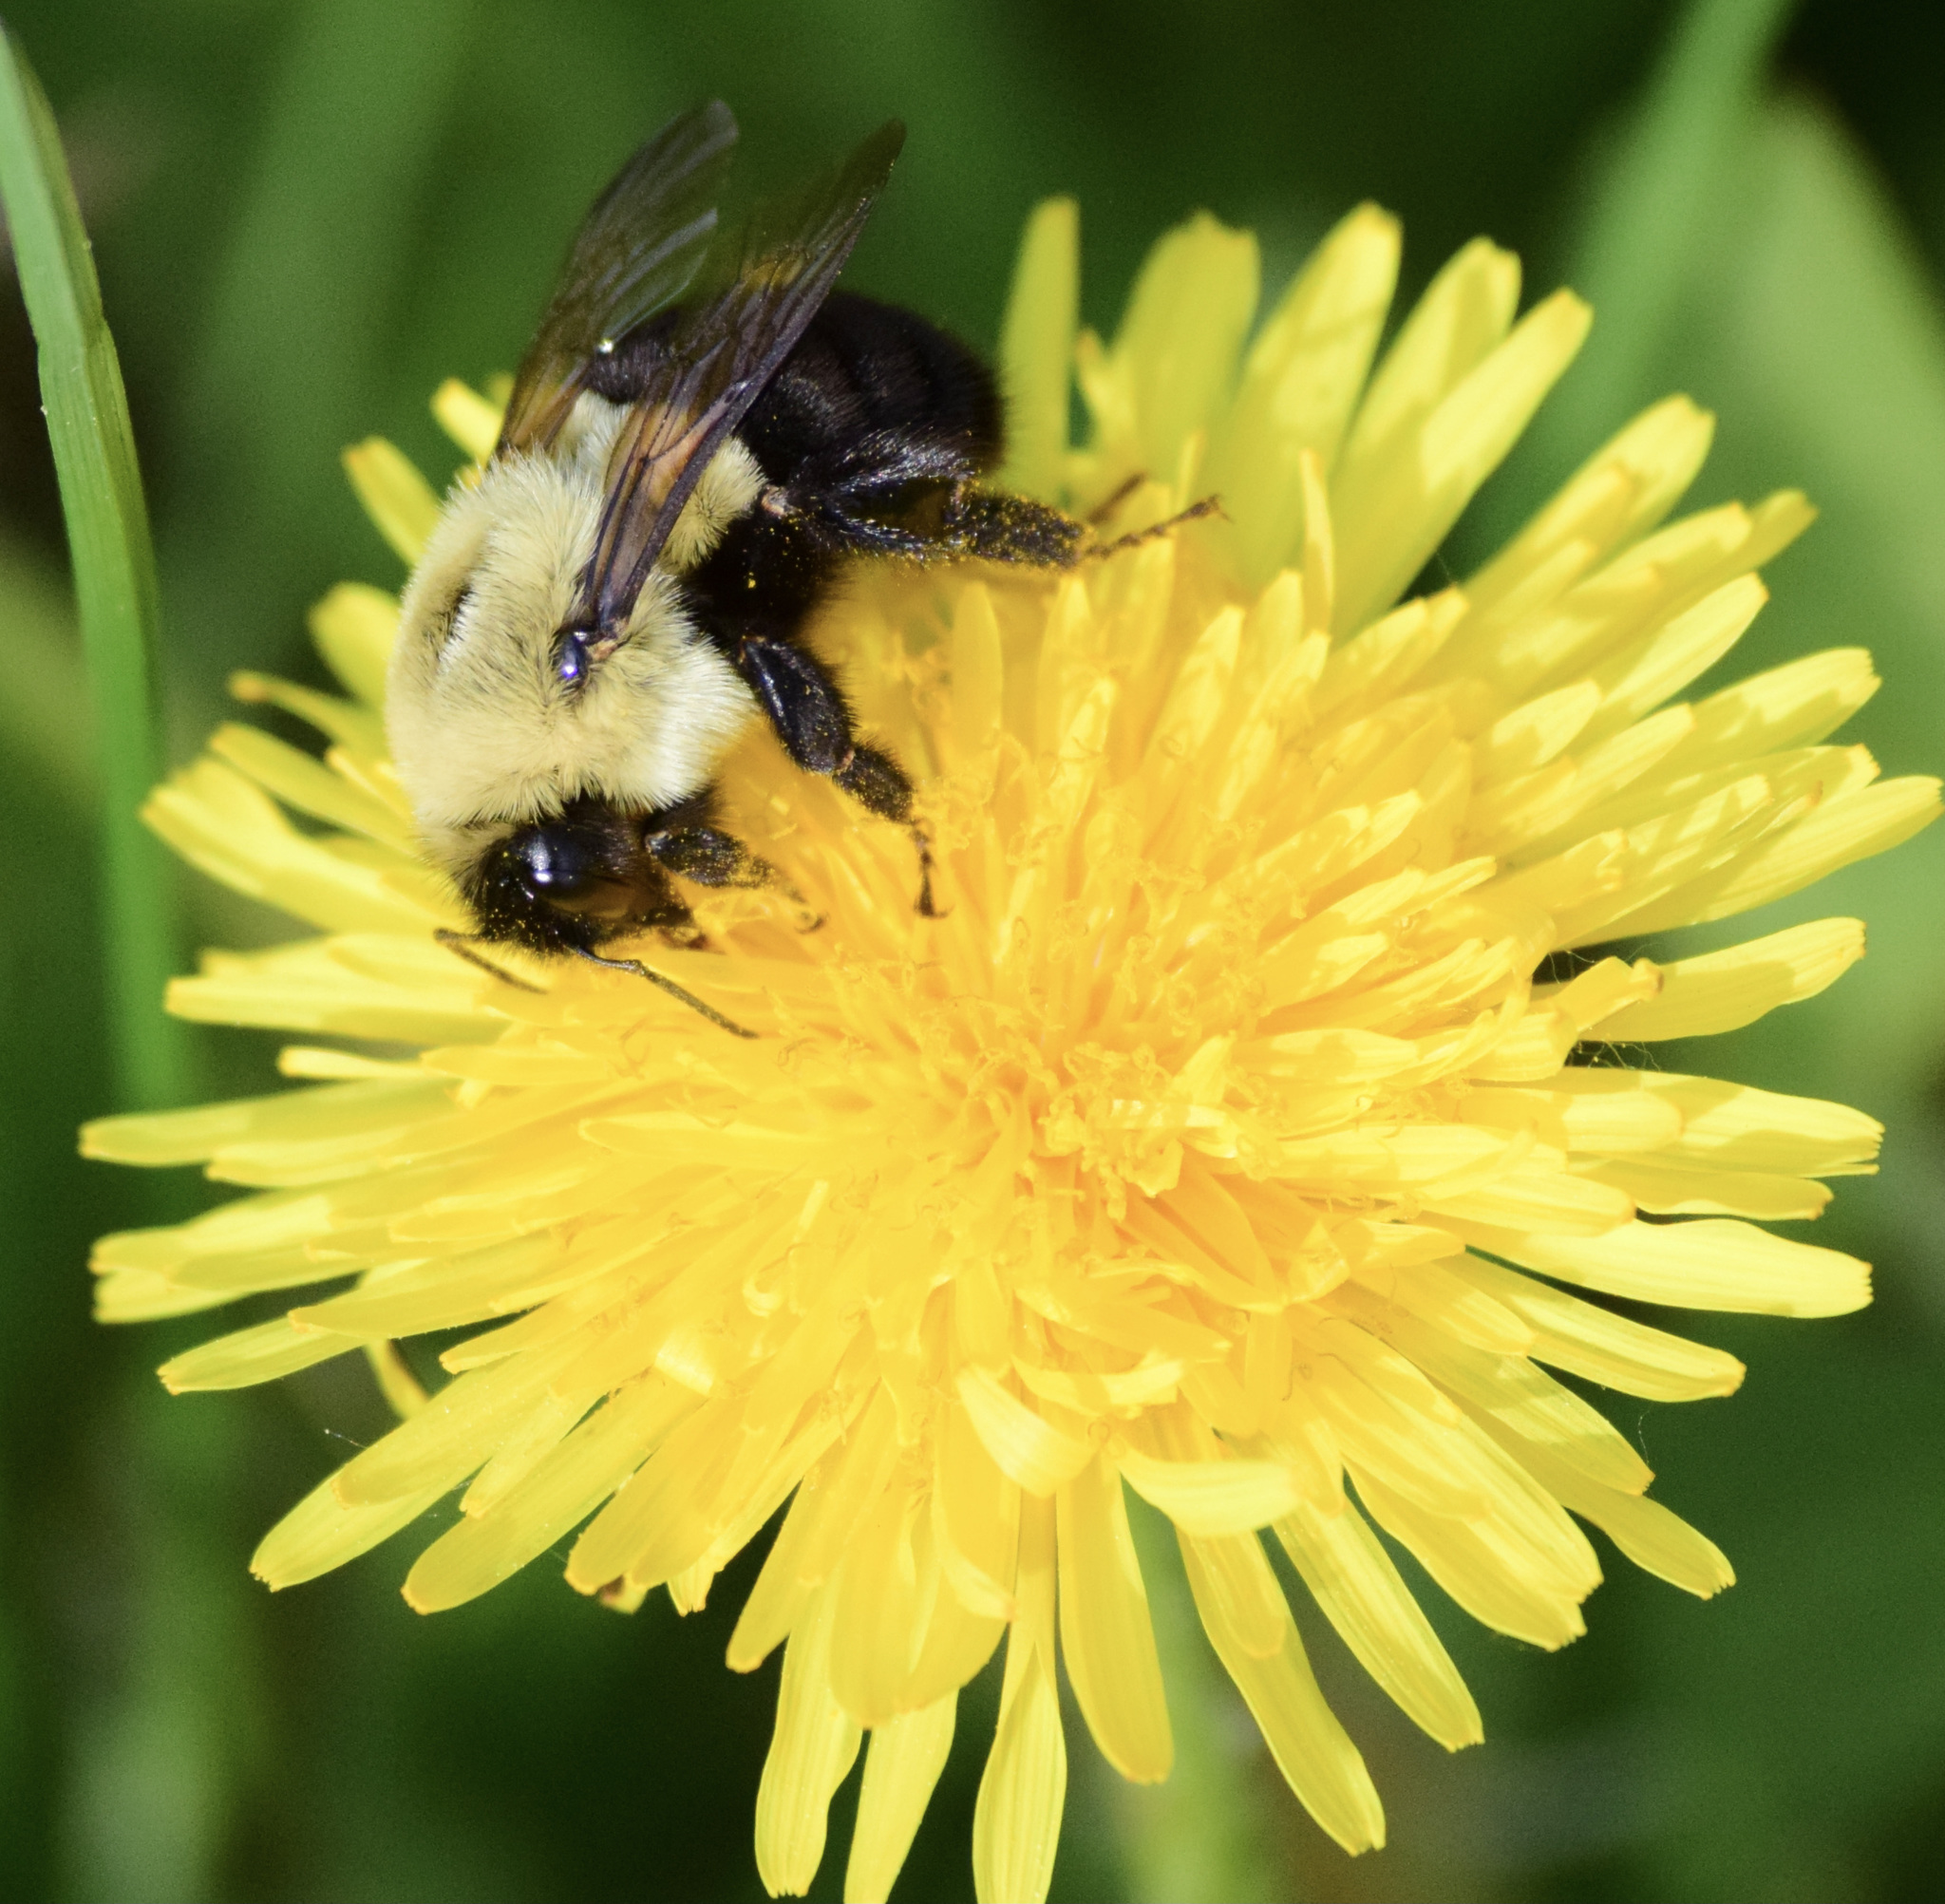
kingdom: Animalia
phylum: Arthropoda
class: Insecta
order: Hymenoptera
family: Apidae
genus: Bombus
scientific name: Bombus impatiens
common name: Common eastern bumble bee
